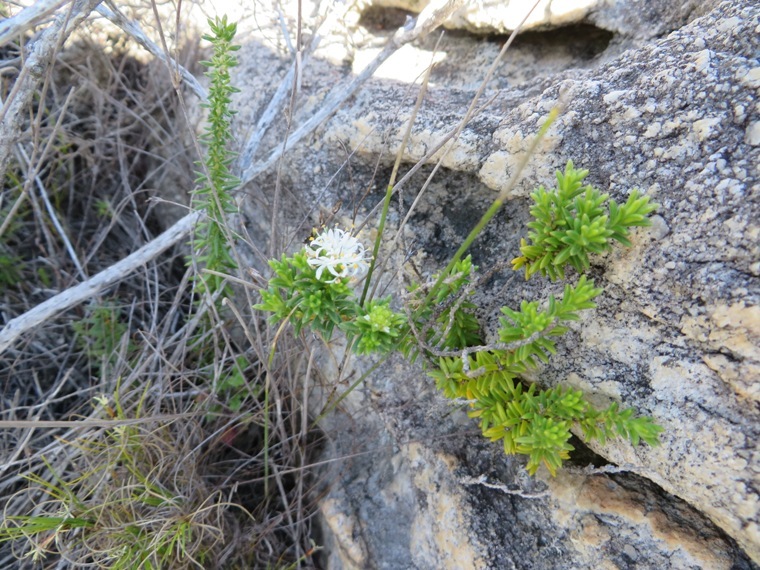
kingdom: Plantae
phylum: Tracheophyta
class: Magnoliopsida
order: Lamiales
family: Stilbaceae
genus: Stilbe
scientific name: Stilbe rupestris
